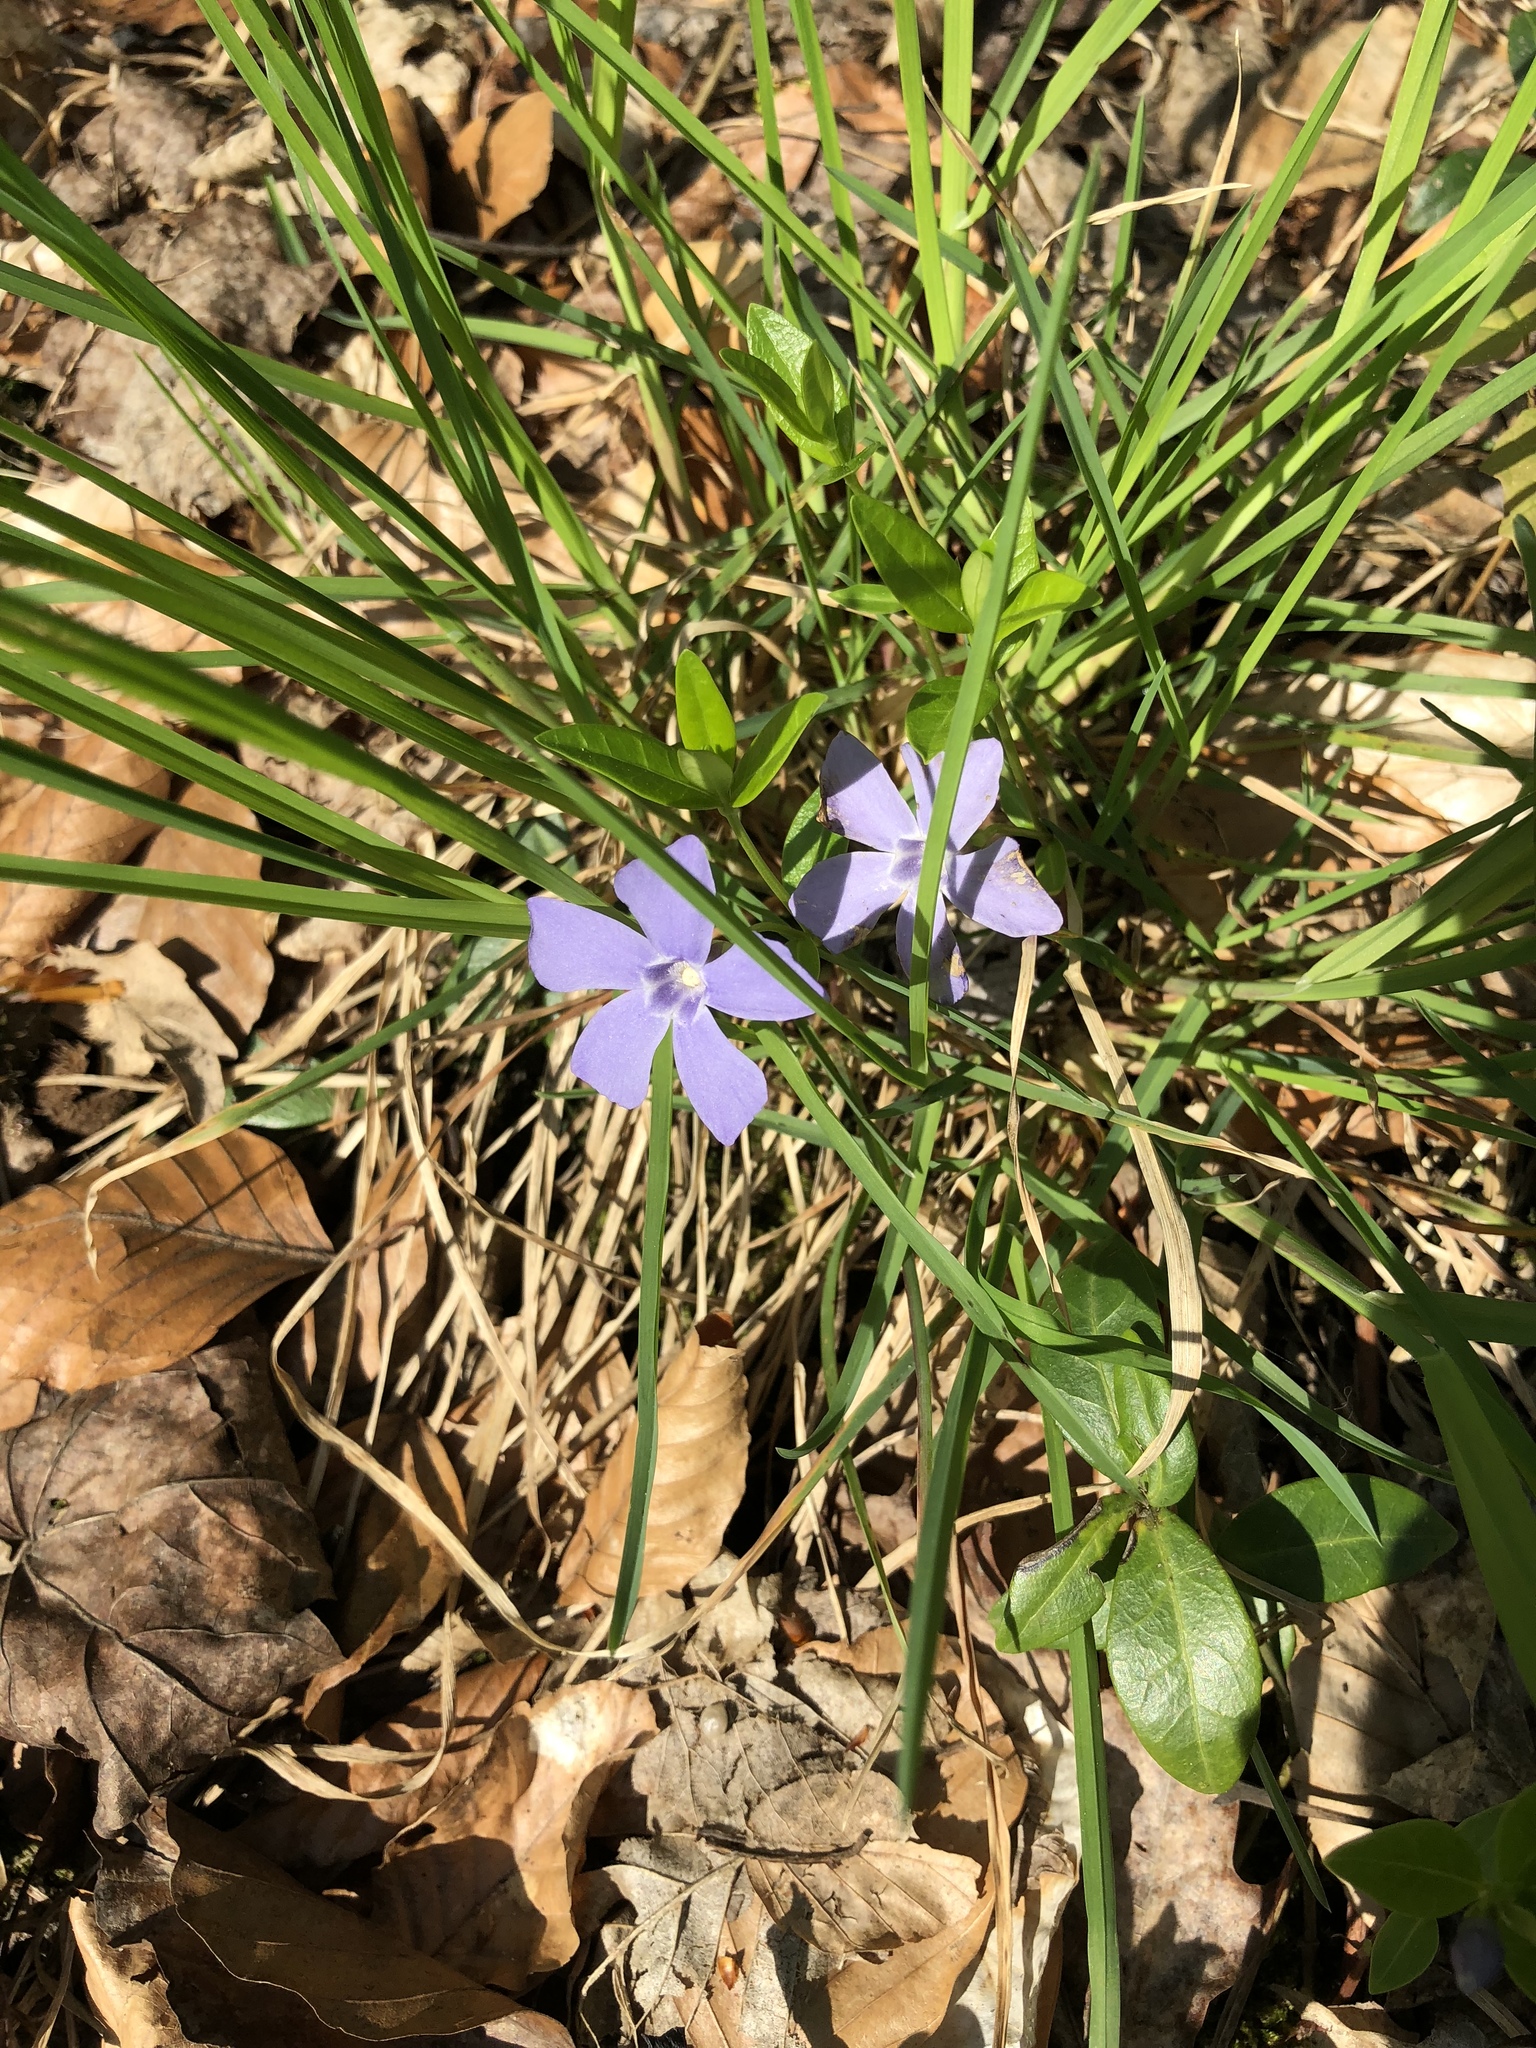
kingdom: Plantae
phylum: Tracheophyta
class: Magnoliopsida
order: Gentianales
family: Apocynaceae
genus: Vinca
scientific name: Vinca minor
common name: Lesser periwinkle
